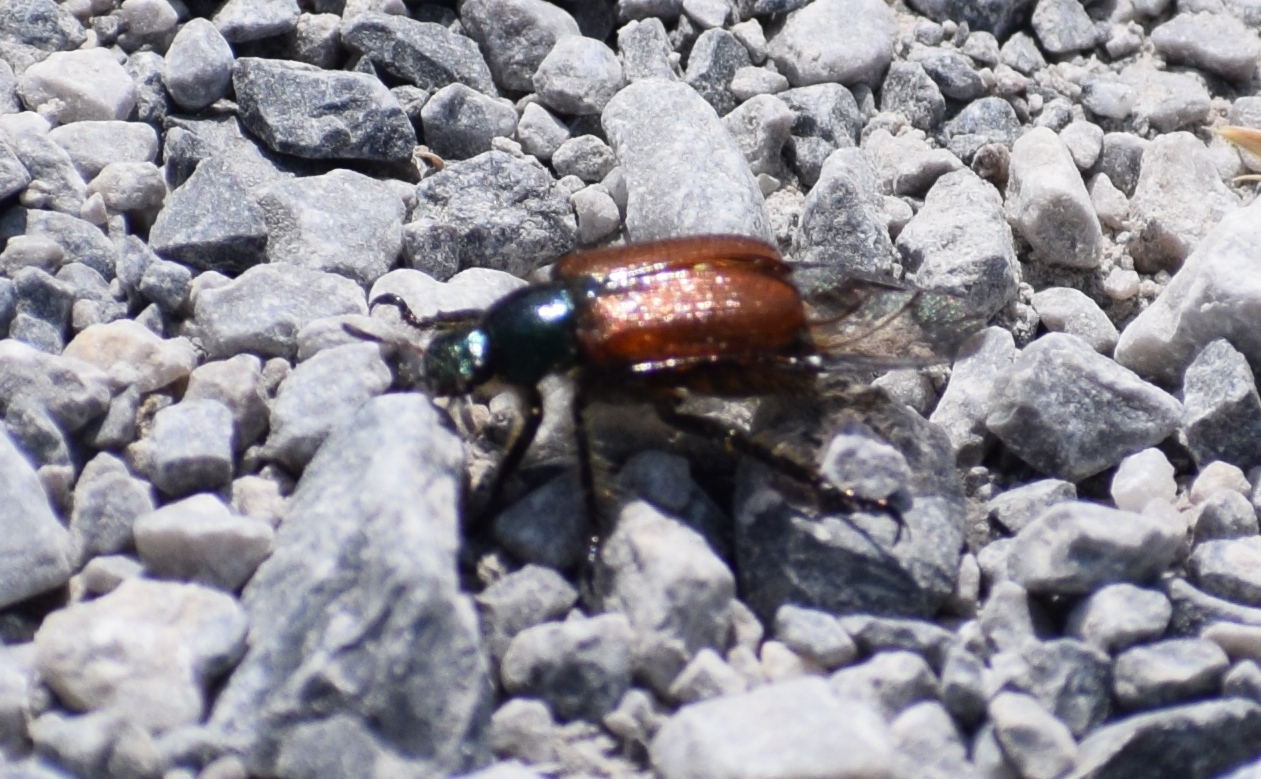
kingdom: Animalia
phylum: Arthropoda
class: Insecta
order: Coleoptera
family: Scarabaeidae
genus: Phyllopertha
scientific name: Phyllopertha horticola
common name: Garden chafer
